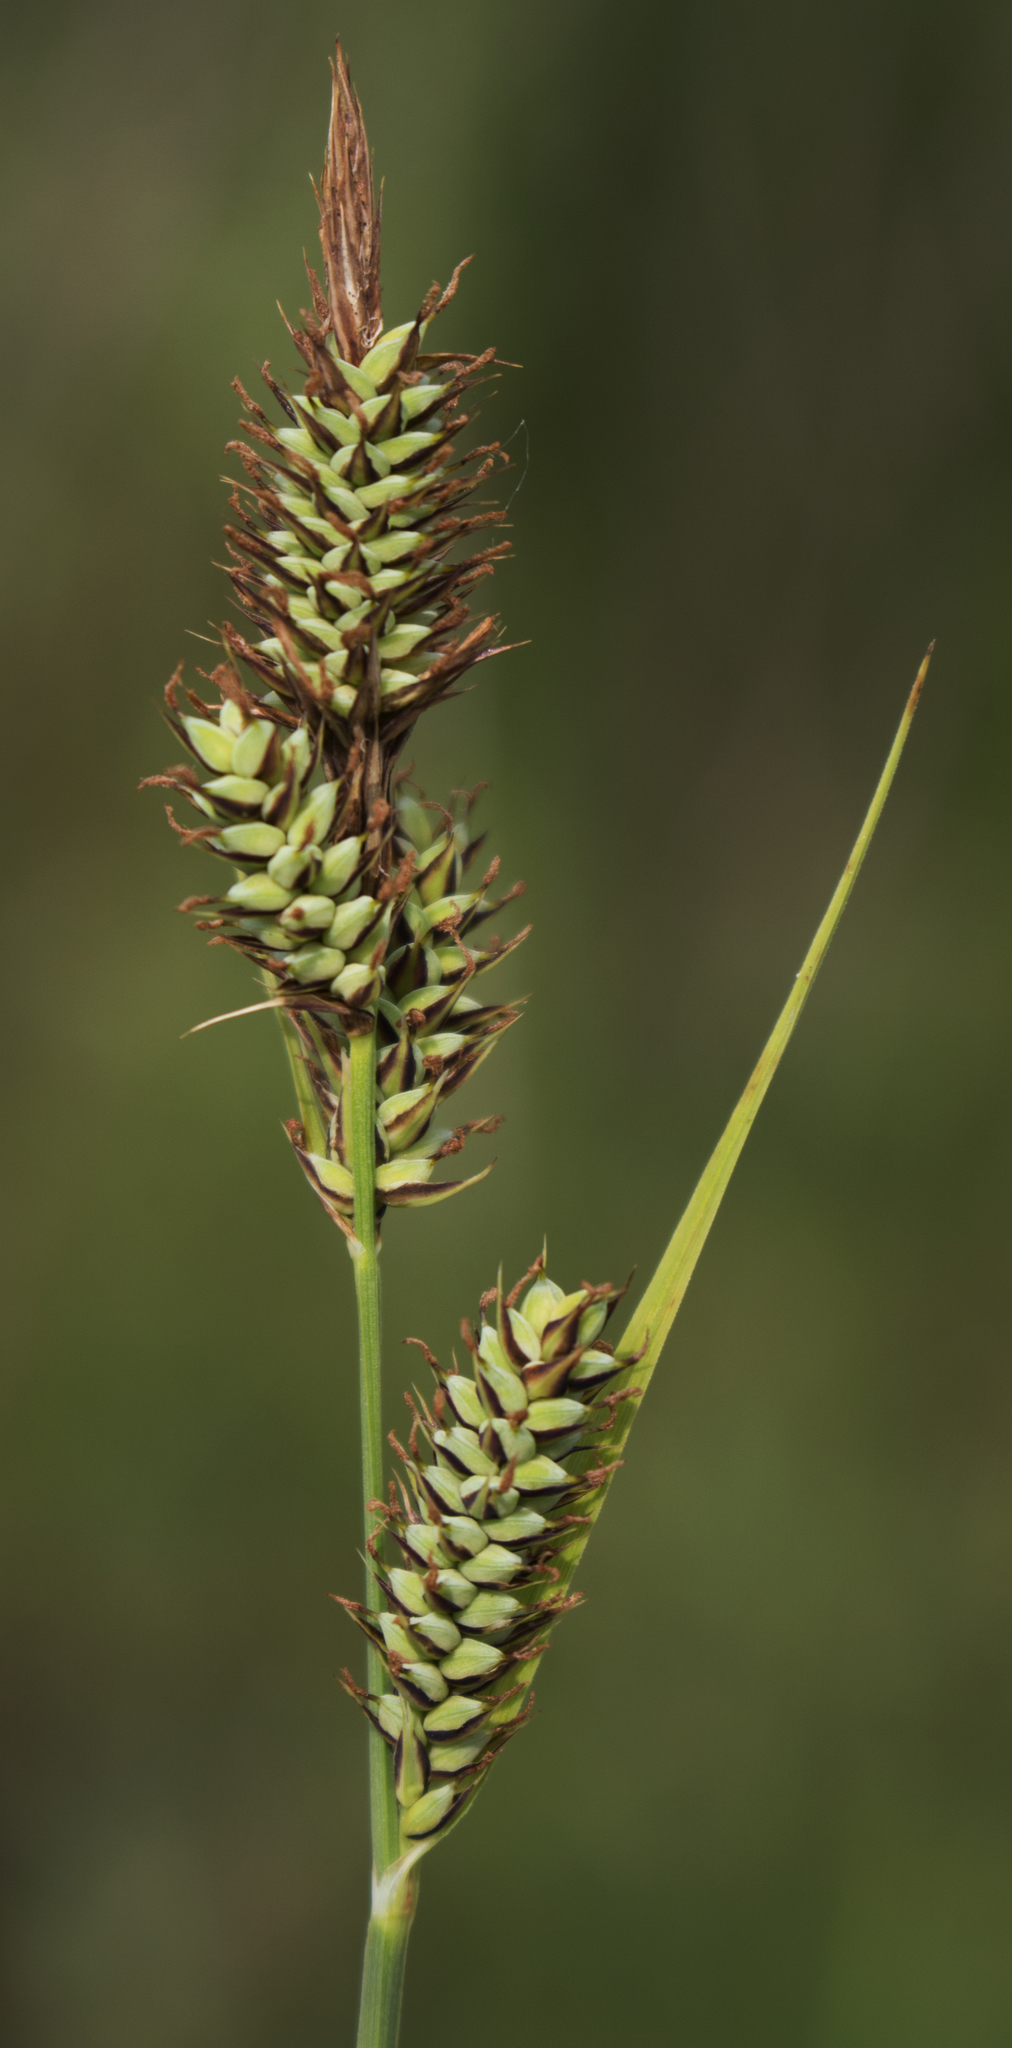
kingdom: Plantae
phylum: Tracheophyta
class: Liliopsida
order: Poales
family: Cyperaceae
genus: Carex
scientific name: Carex buxbaumii
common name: Club sedge
